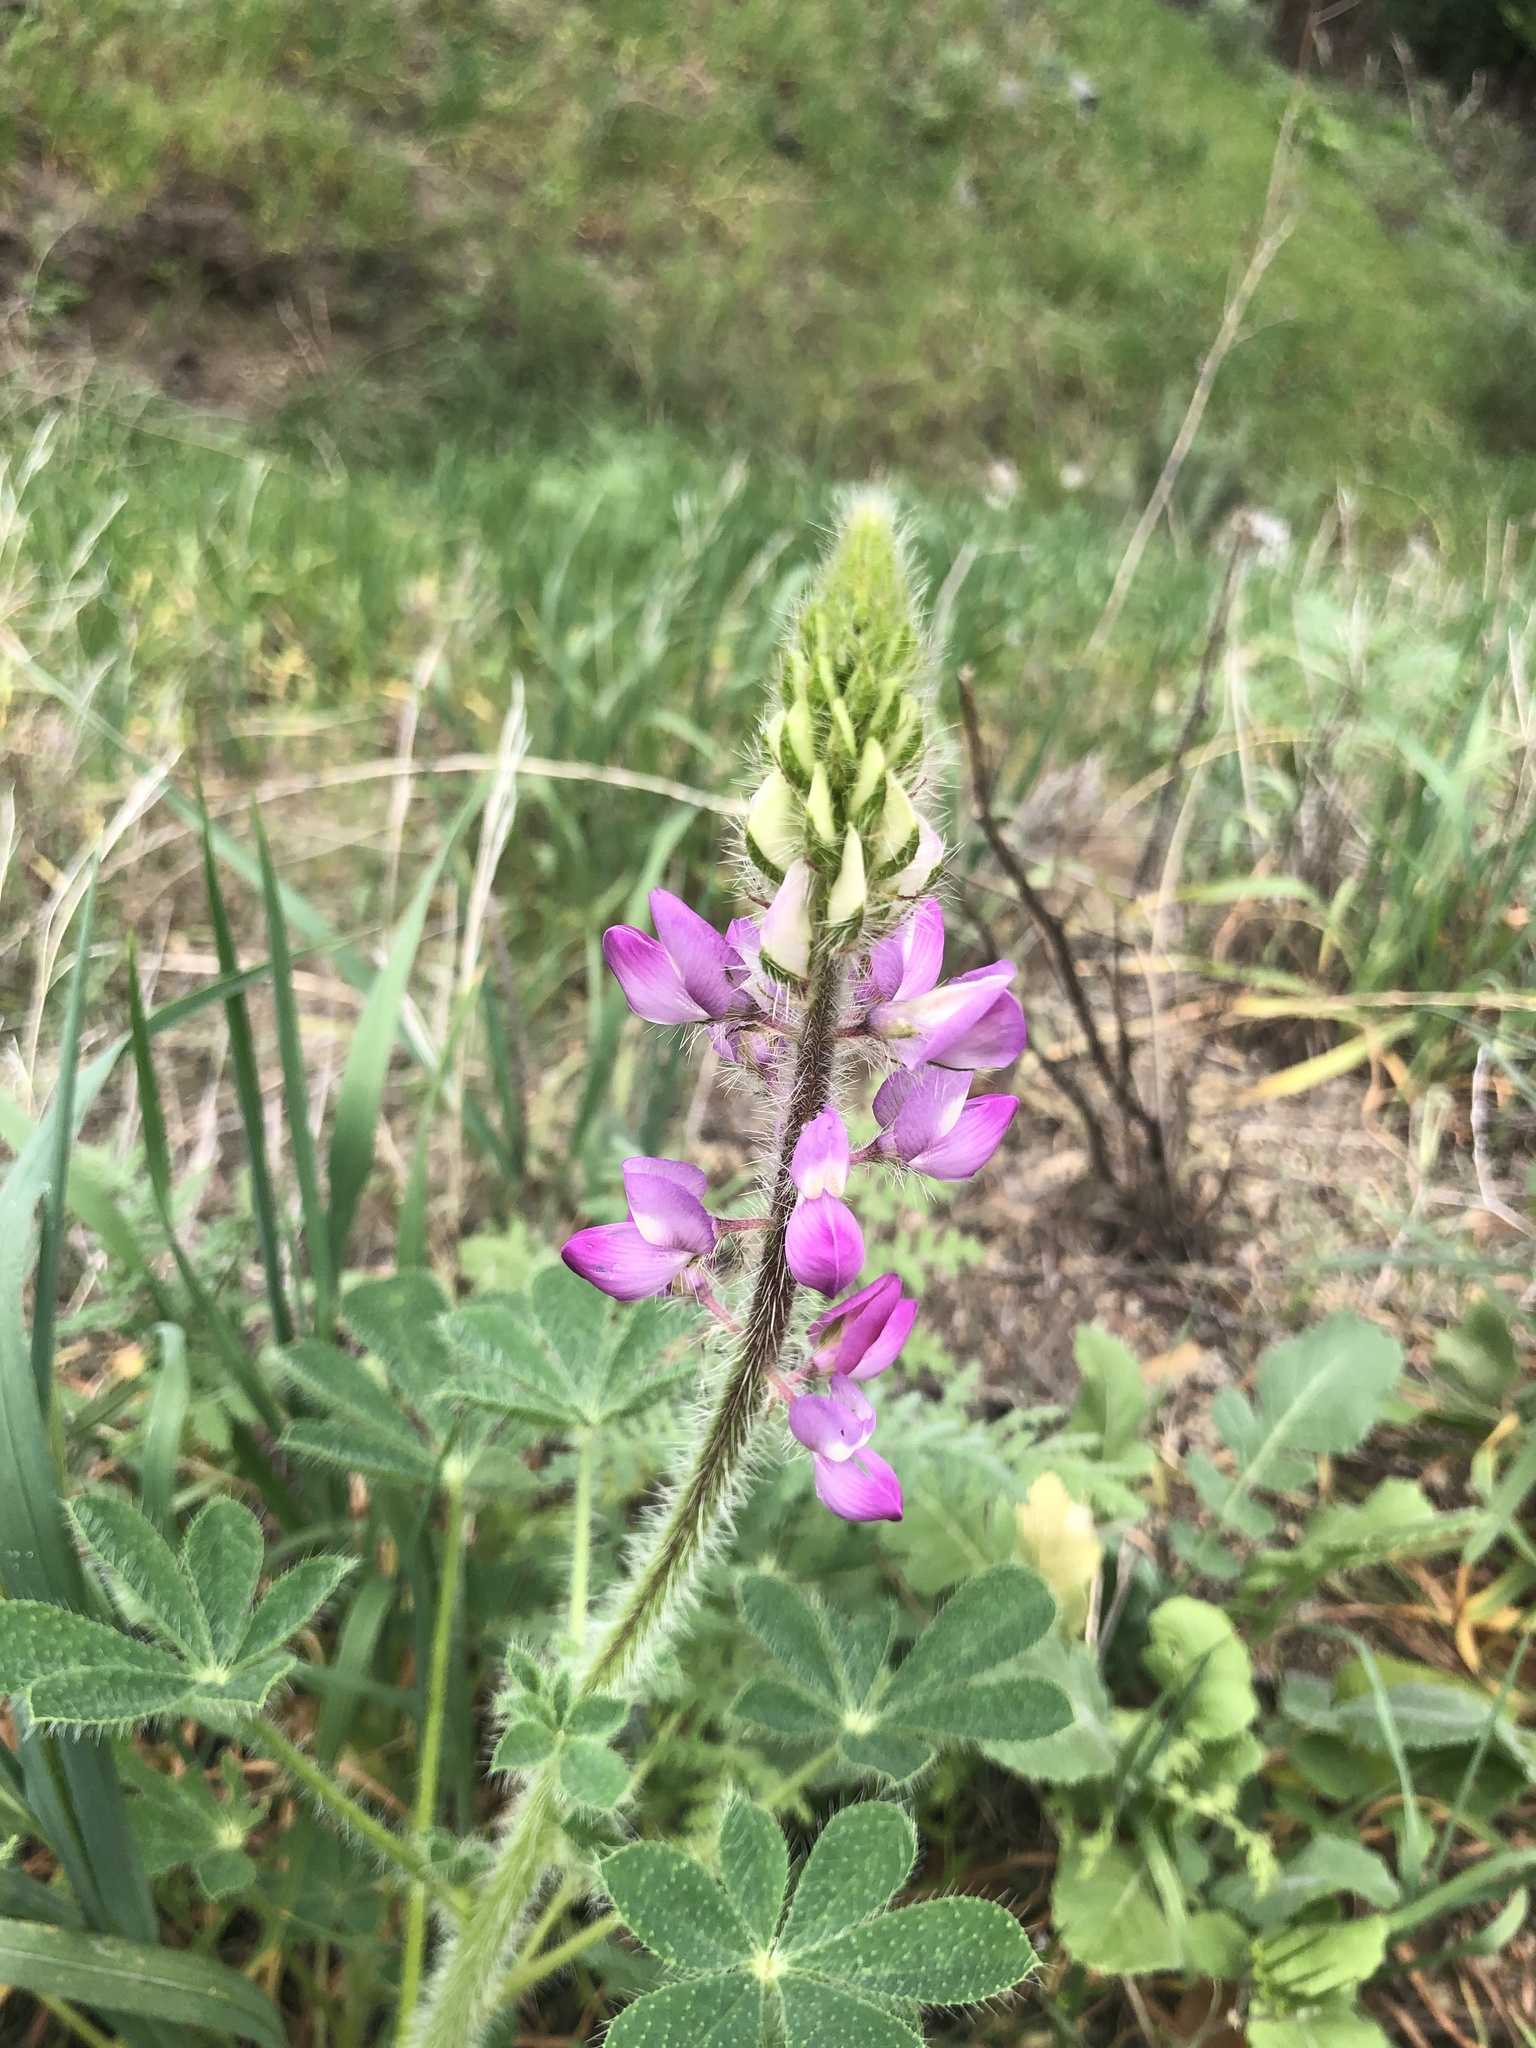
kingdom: Plantae
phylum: Tracheophyta
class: Magnoliopsida
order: Fabales
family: Fabaceae
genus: Lupinus
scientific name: Lupinus hirsutissimus
